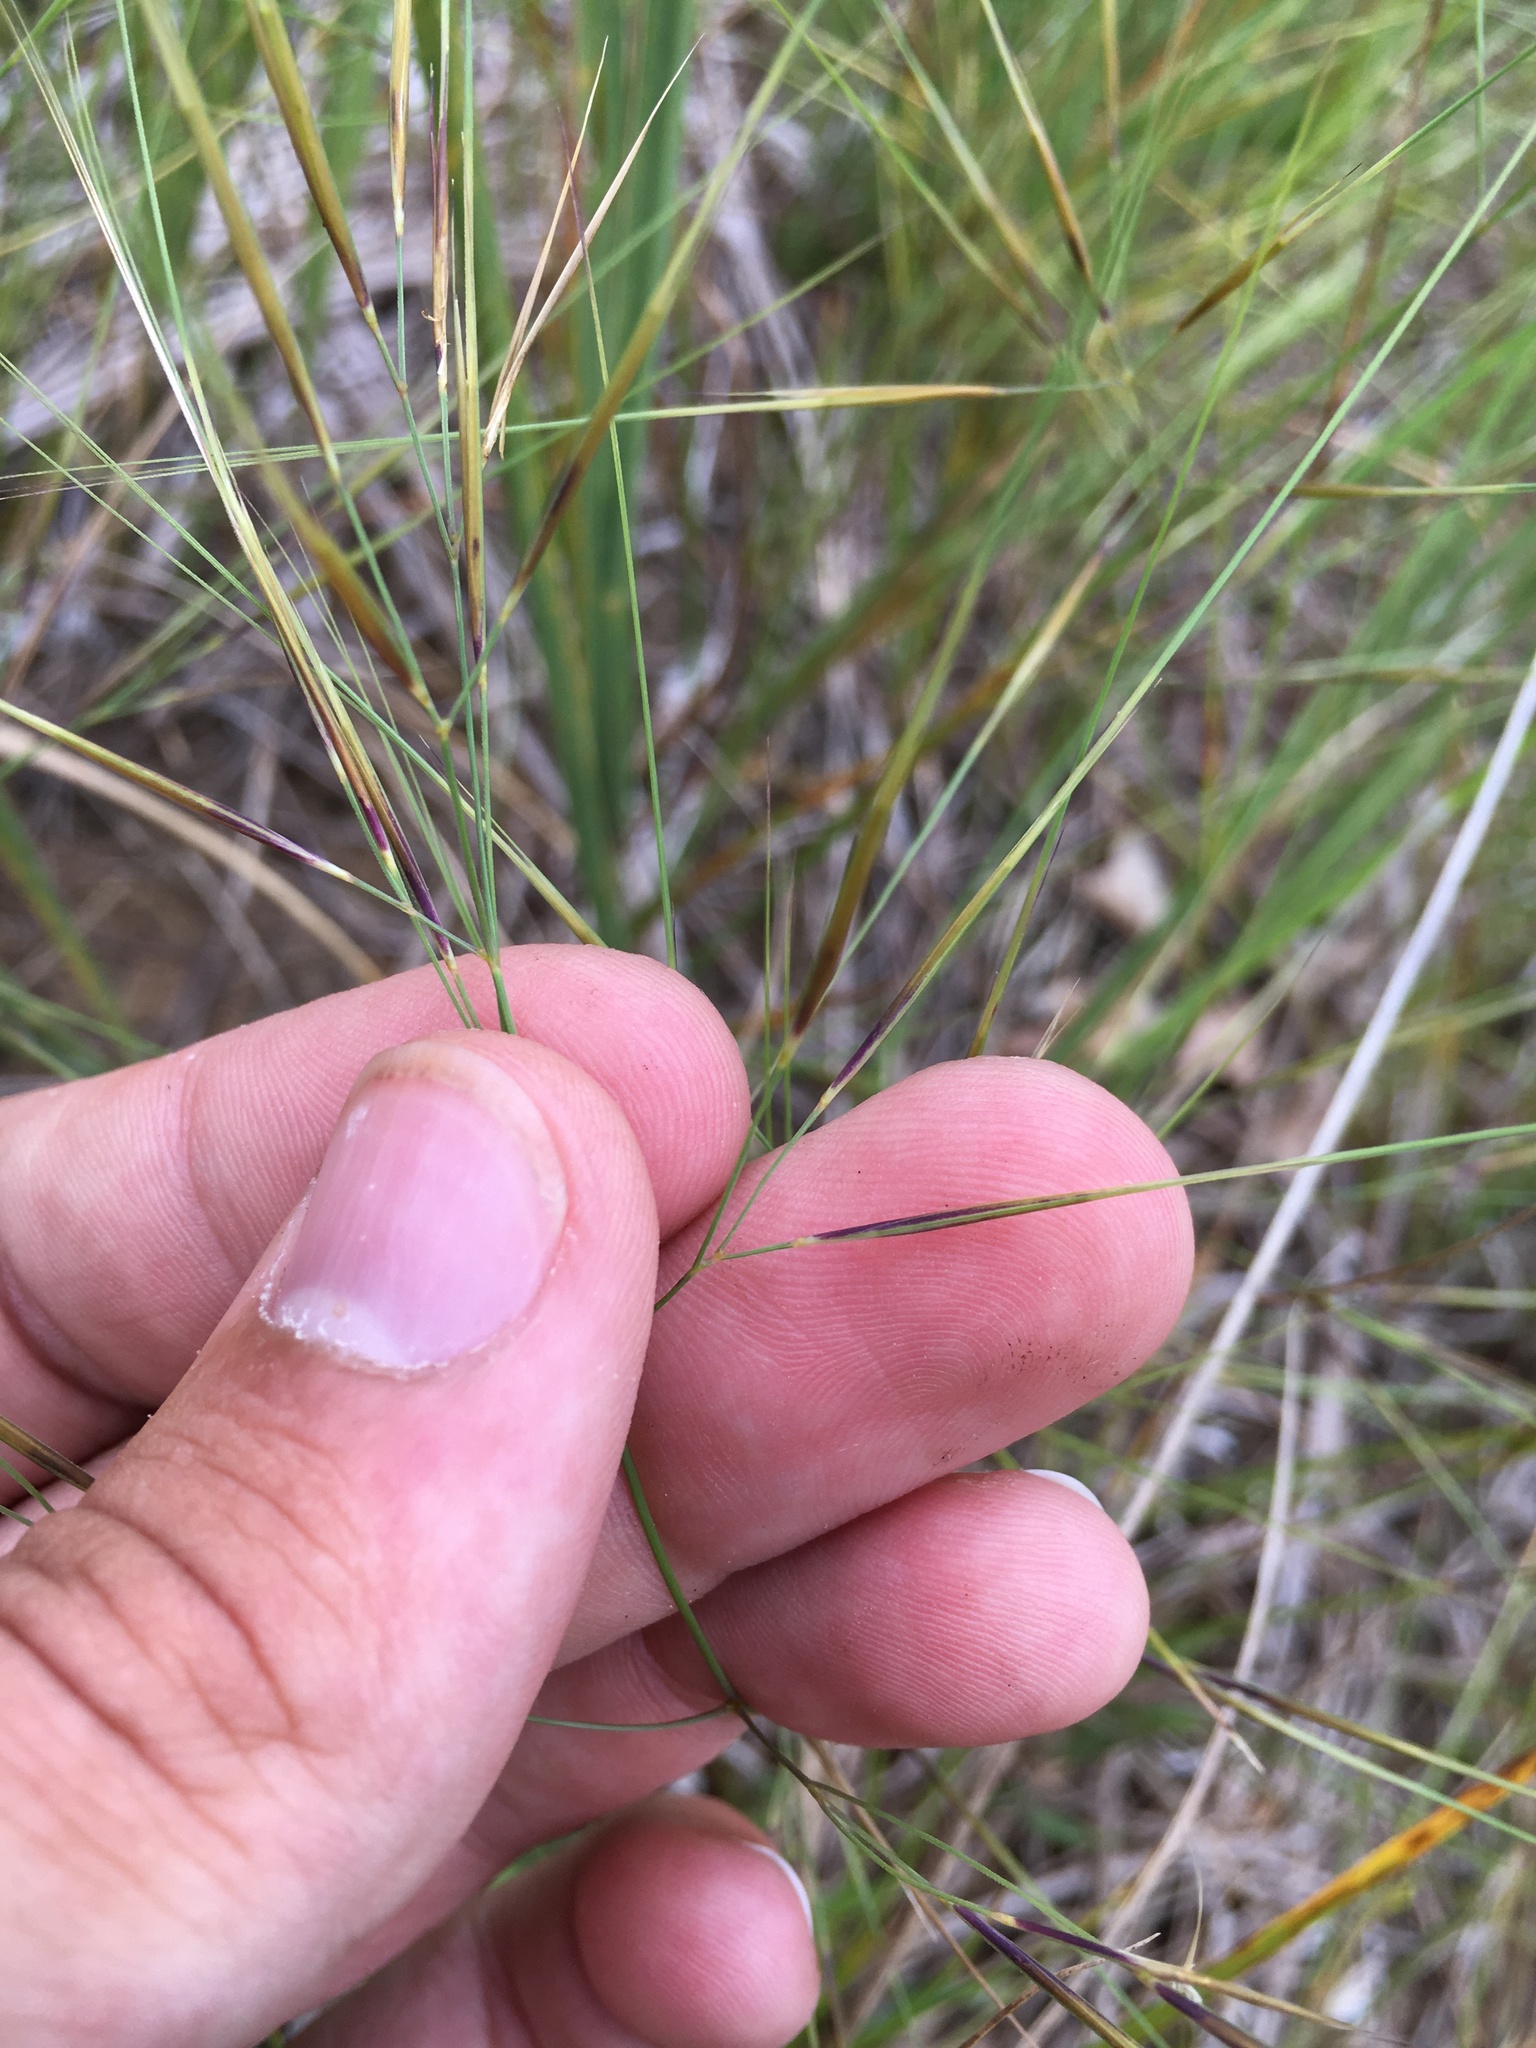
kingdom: Plantae
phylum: Tracheophyta
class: Liliopsida
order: Poales
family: Poaceae
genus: Aristida
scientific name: Aristida tuberculosa
